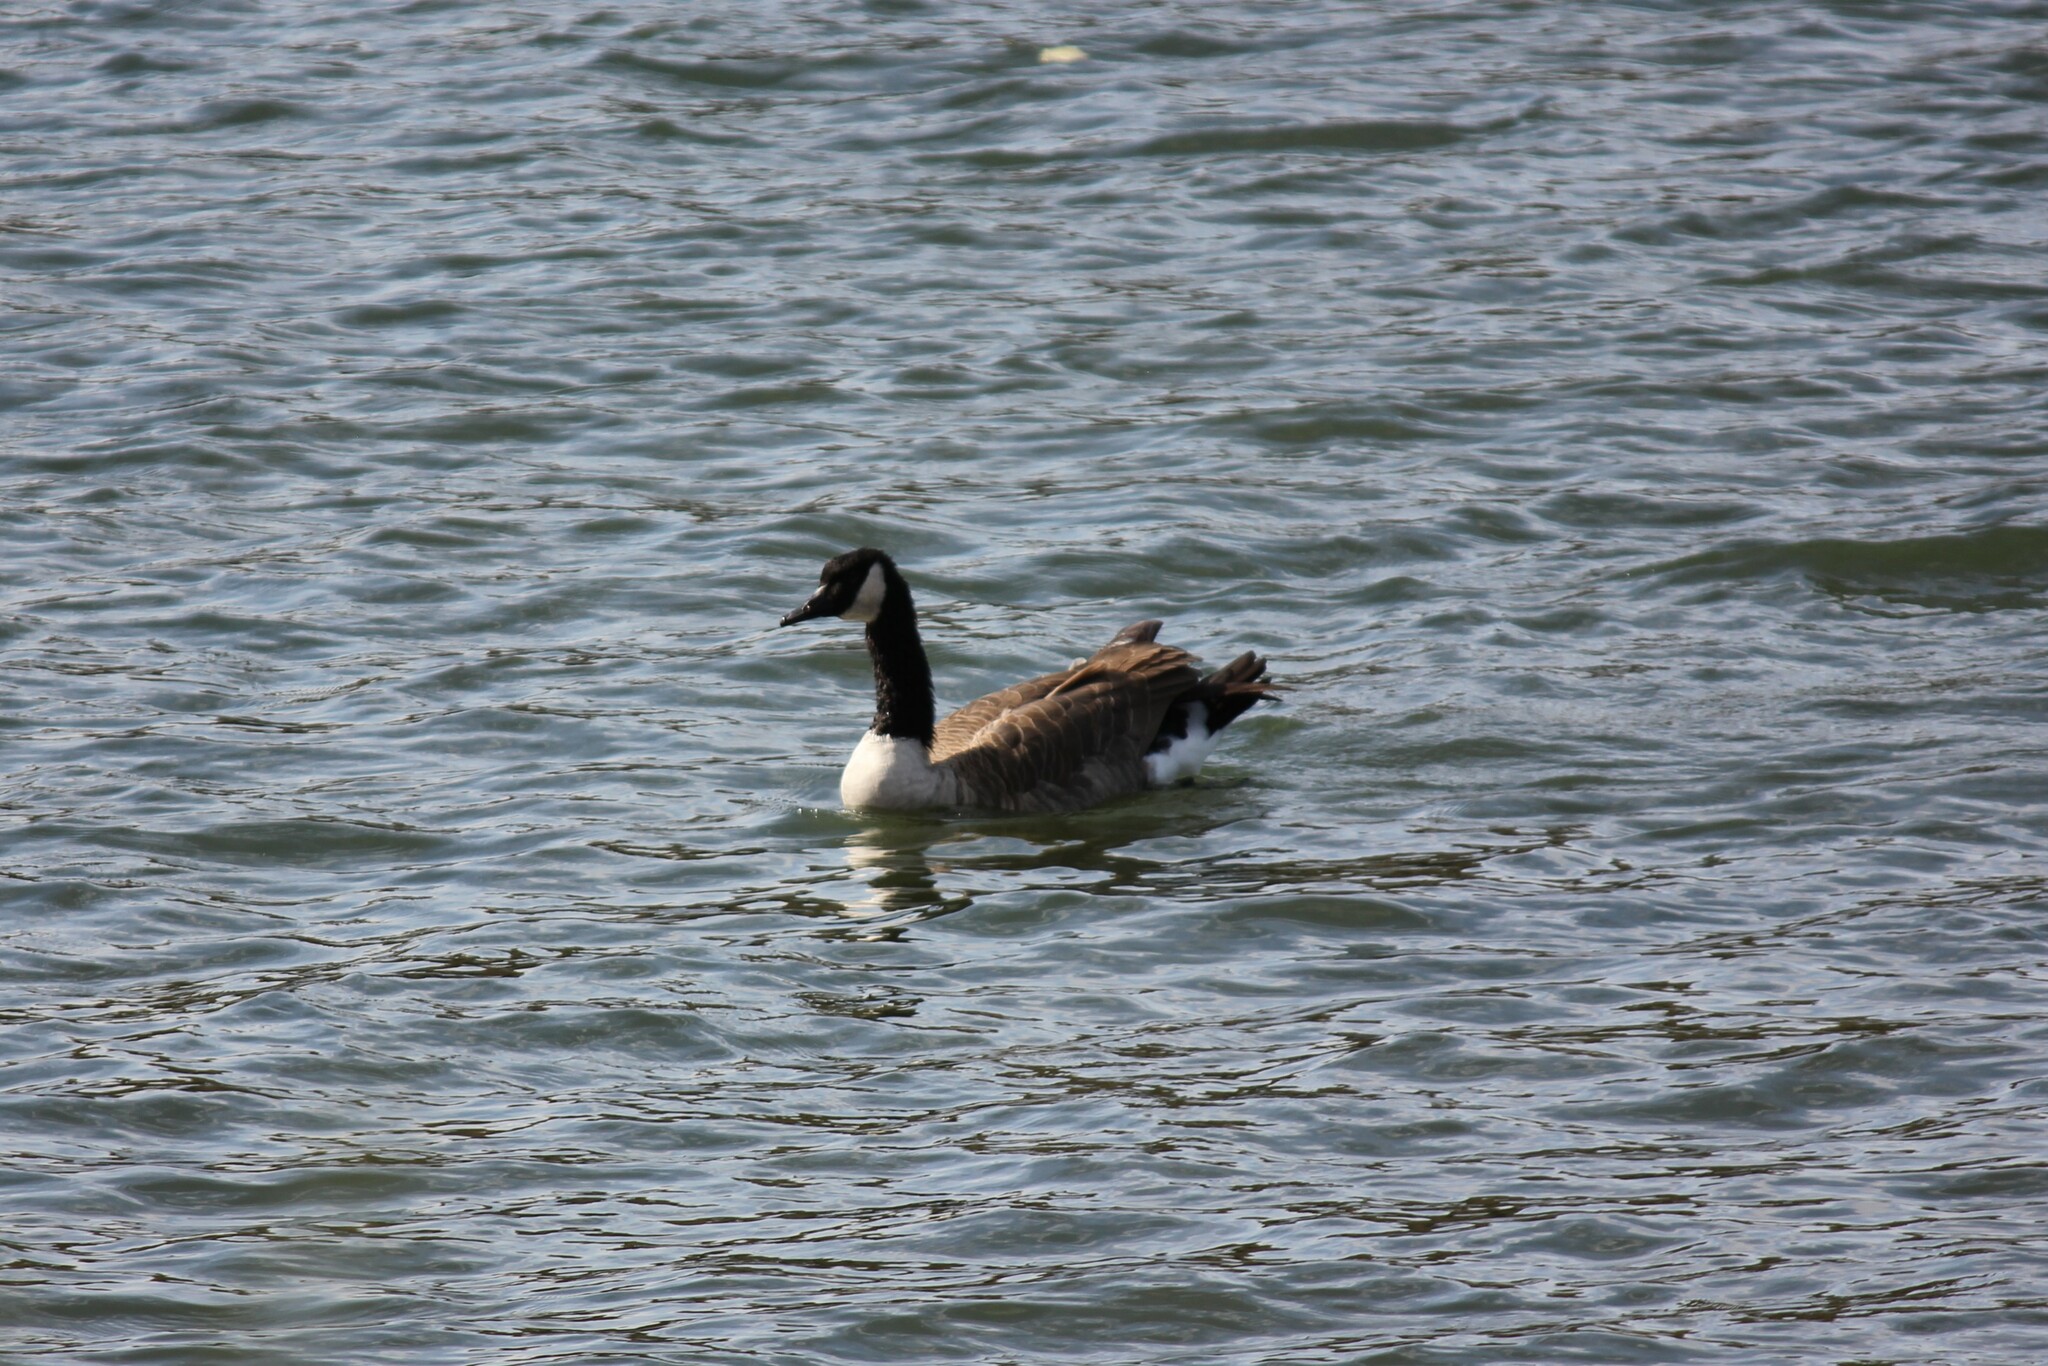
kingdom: Animalia
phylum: Chordata
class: Aves
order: Anseriformes
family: Anatidae
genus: Branta
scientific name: Branta canadensis
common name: Canada goose
